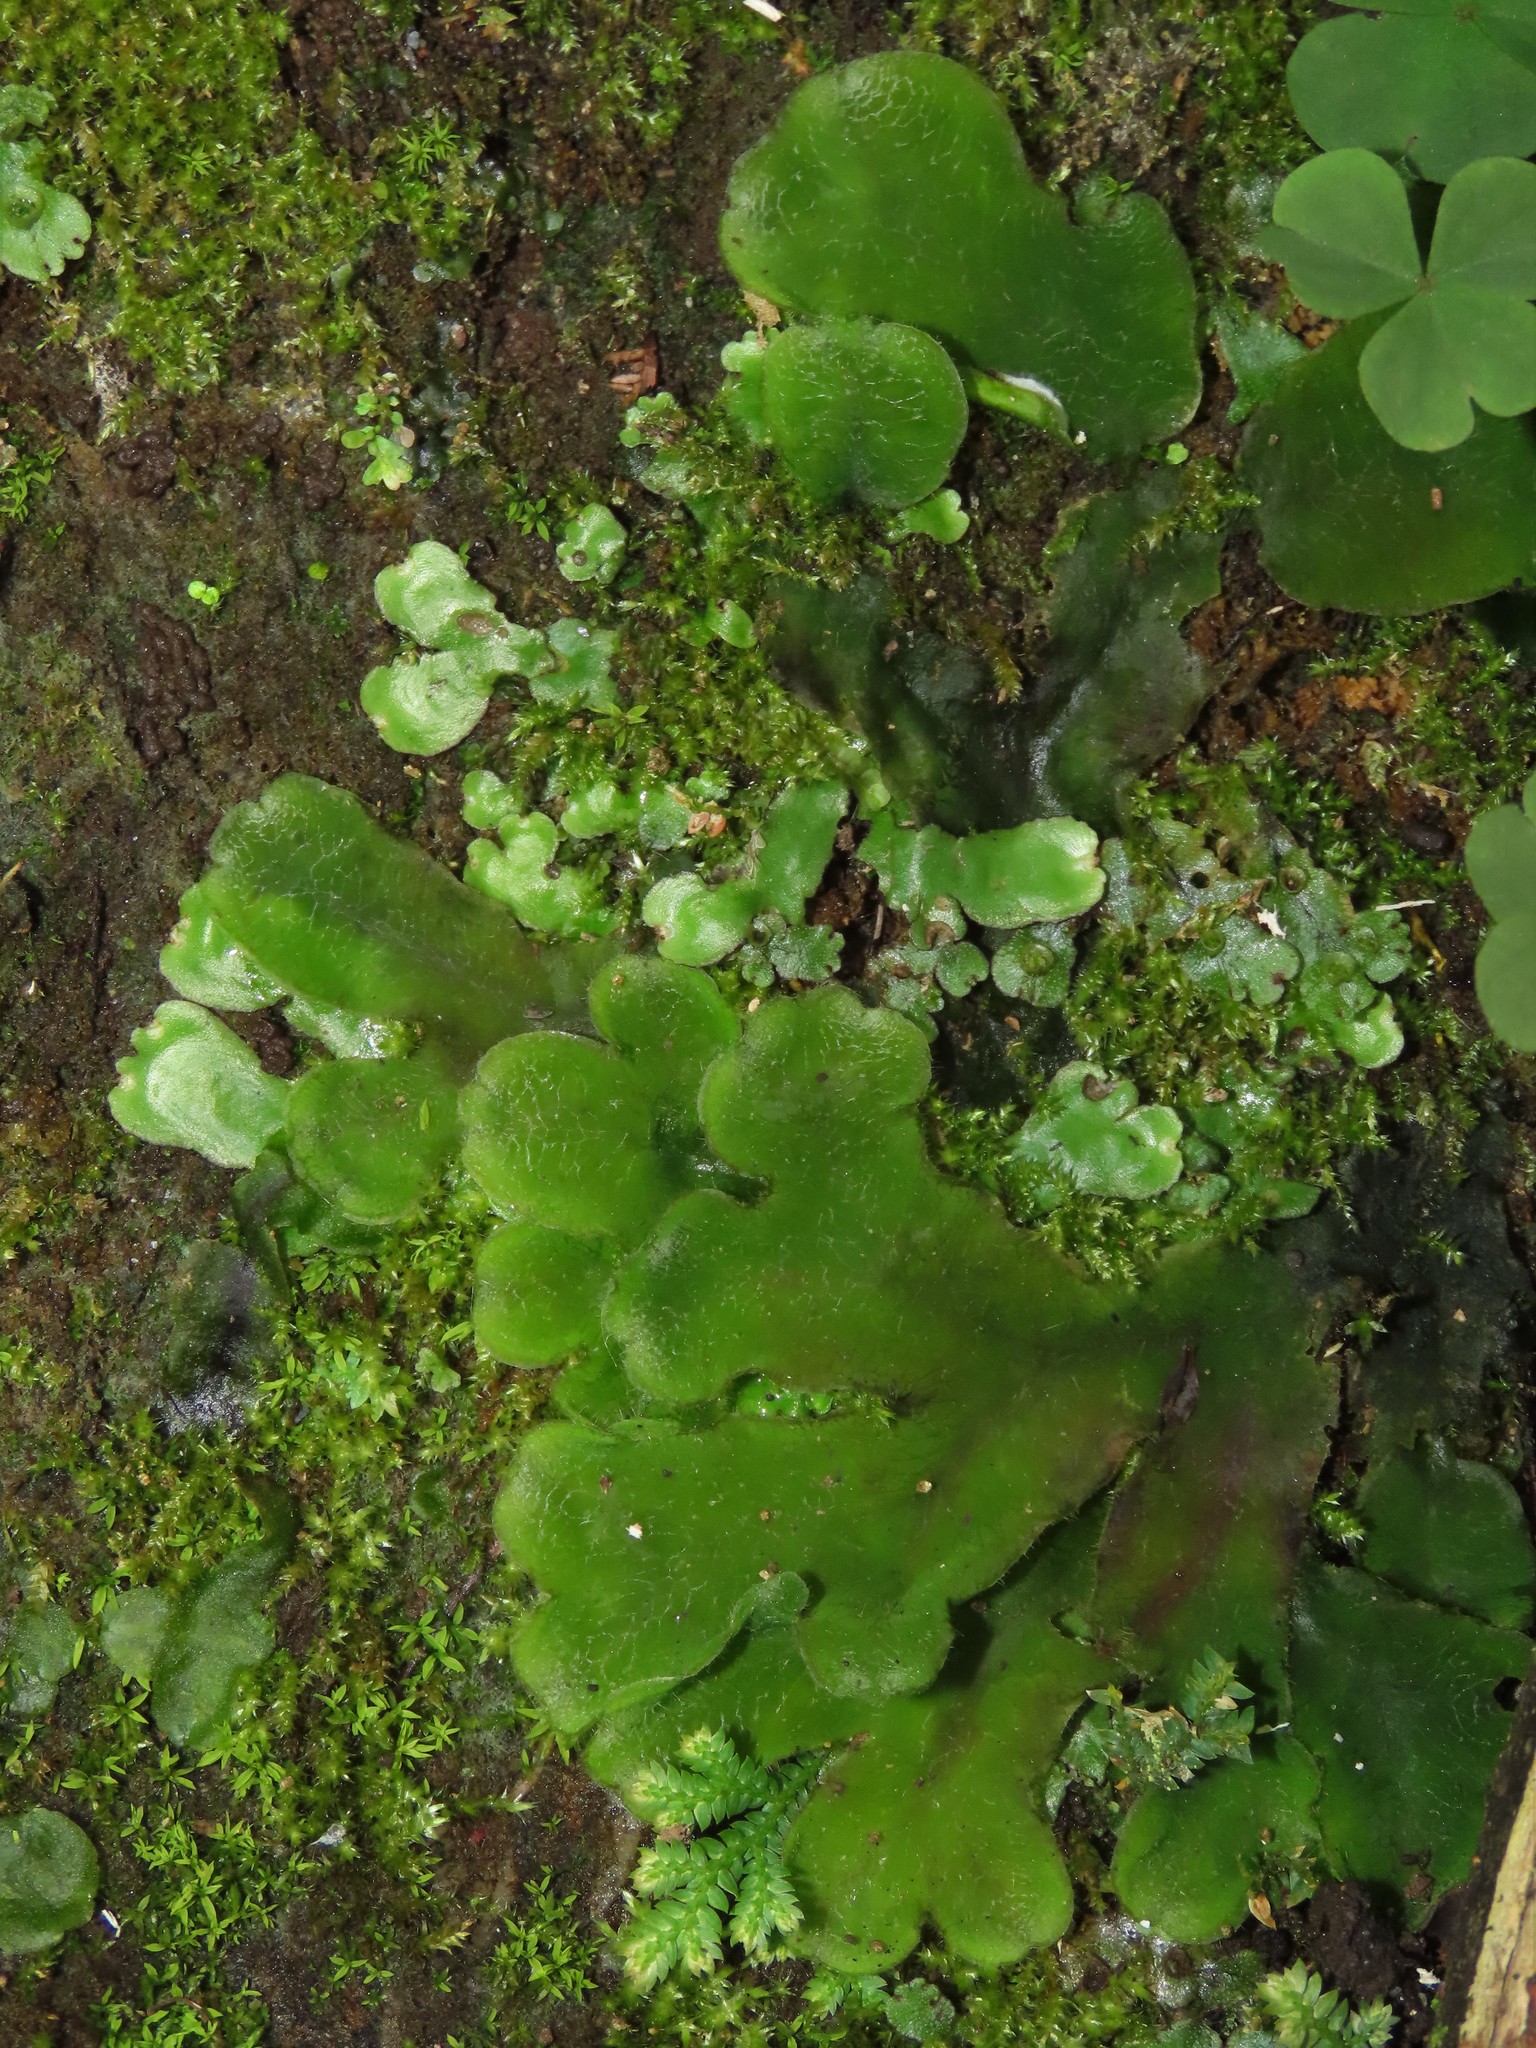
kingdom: Plantae
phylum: Marchantiophyta
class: Marchantiopsida
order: Marchantiales
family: Dumortieraceae
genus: Dumortiera
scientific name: Dumortiera hirsuta
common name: Dumortier's liverwort
